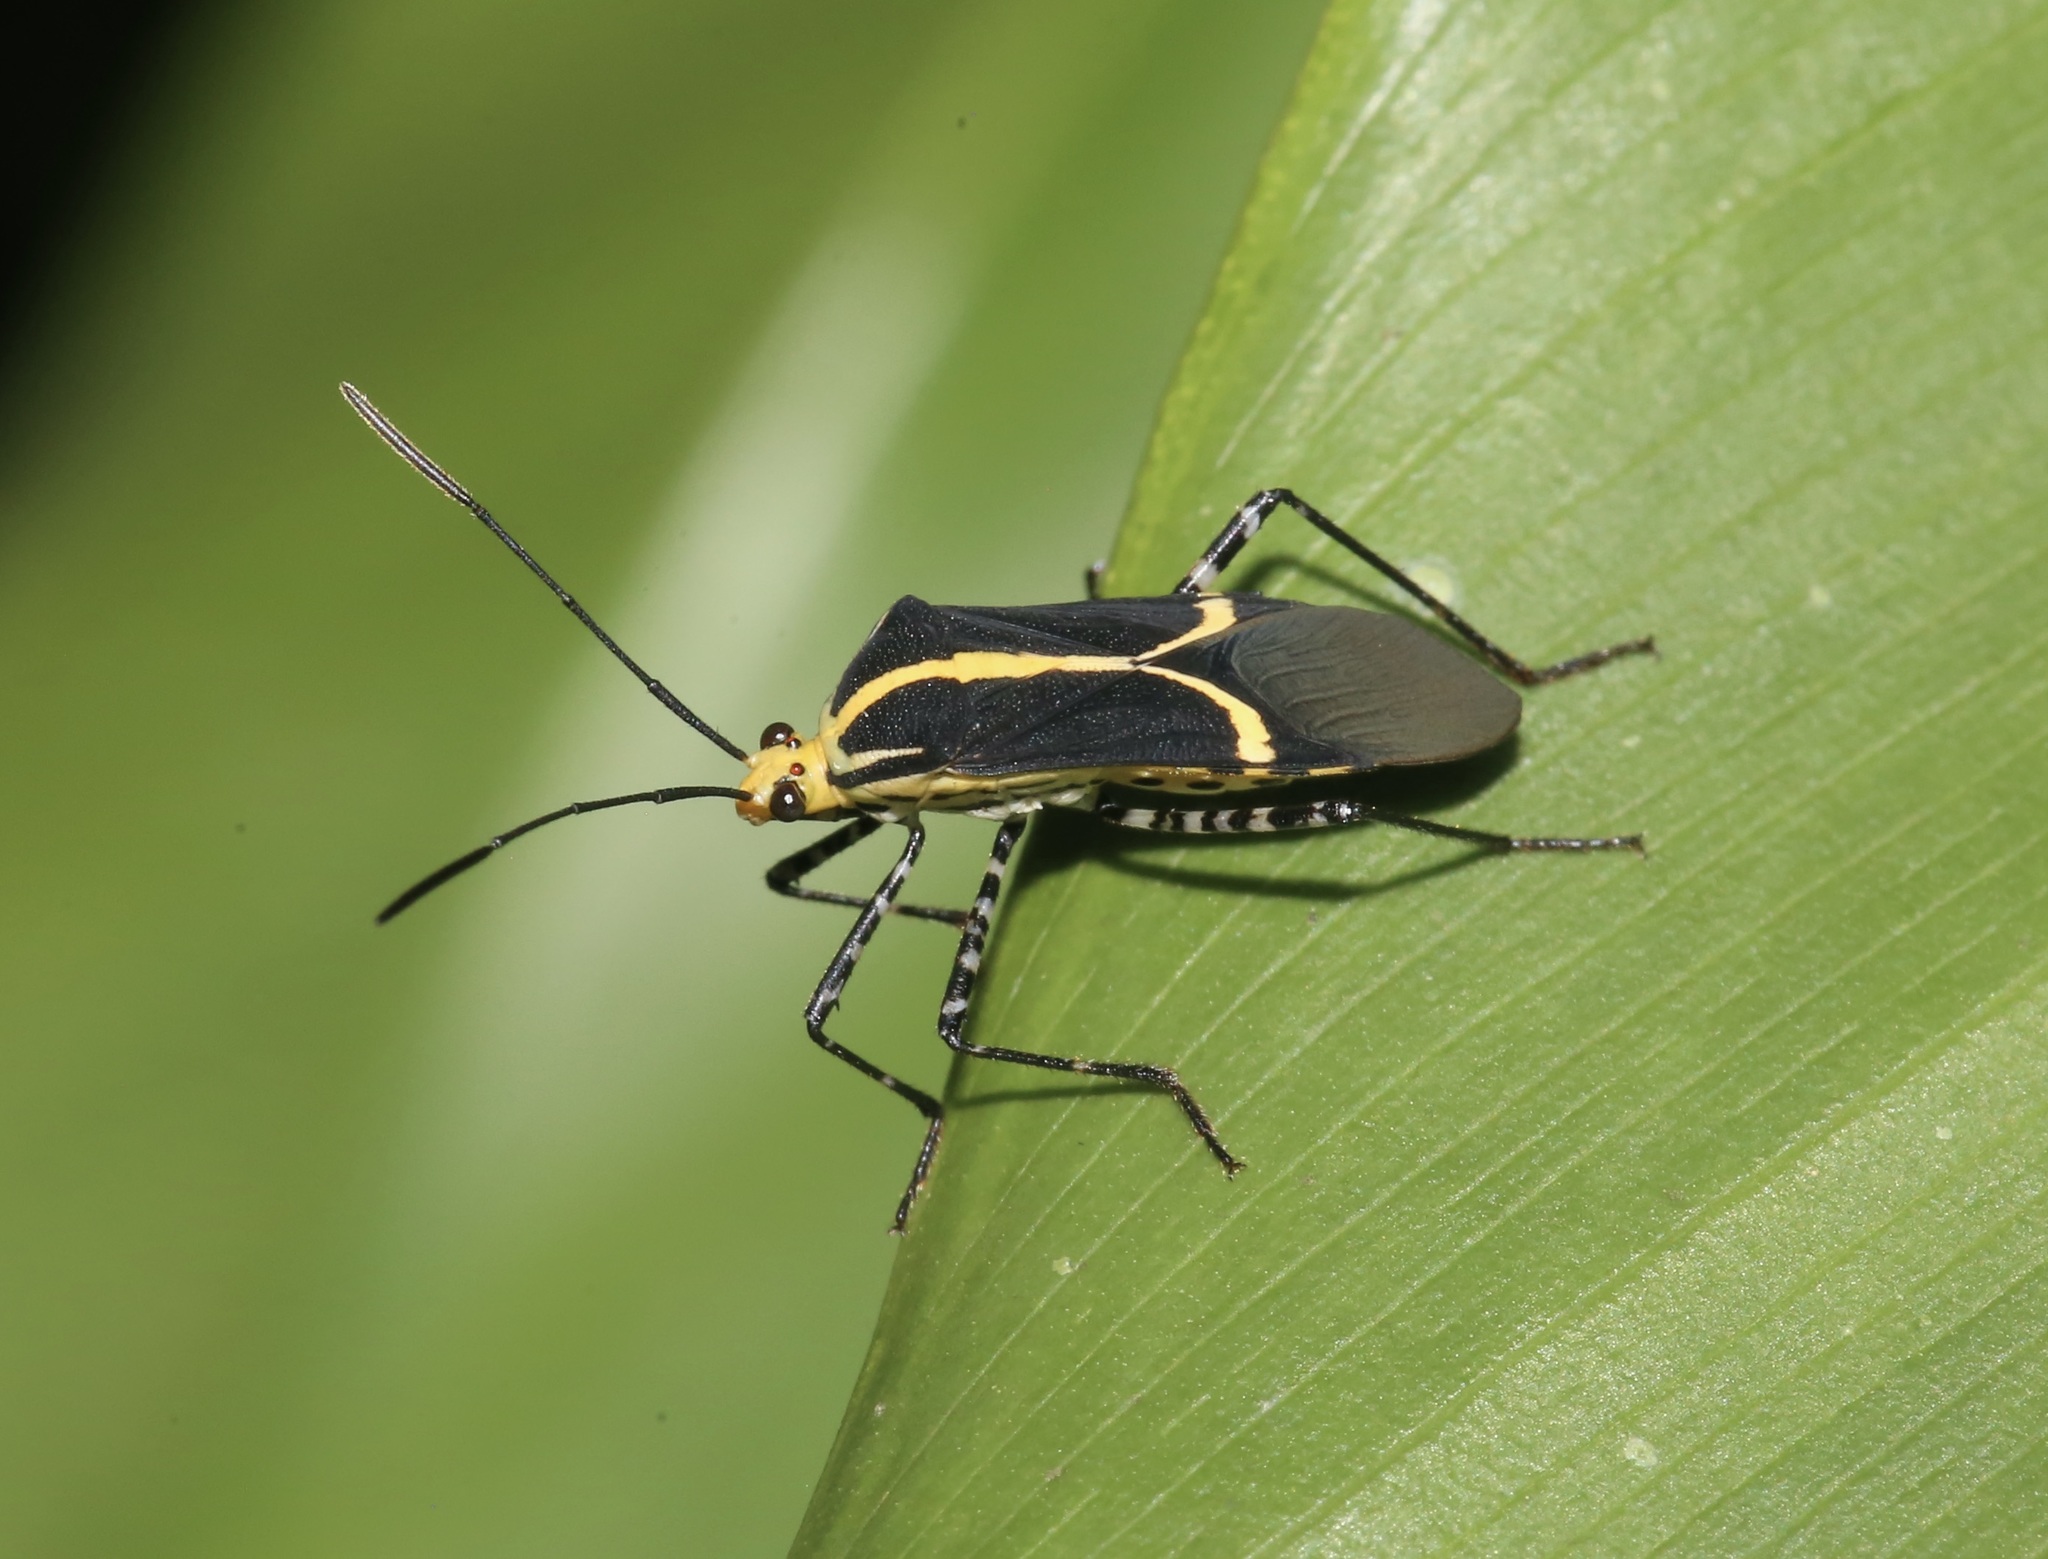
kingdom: Animalia
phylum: Arthropoda
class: Insecta
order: Hemiptera
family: Coreidae
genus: Hypselonotus
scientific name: Hypselonotus linea
